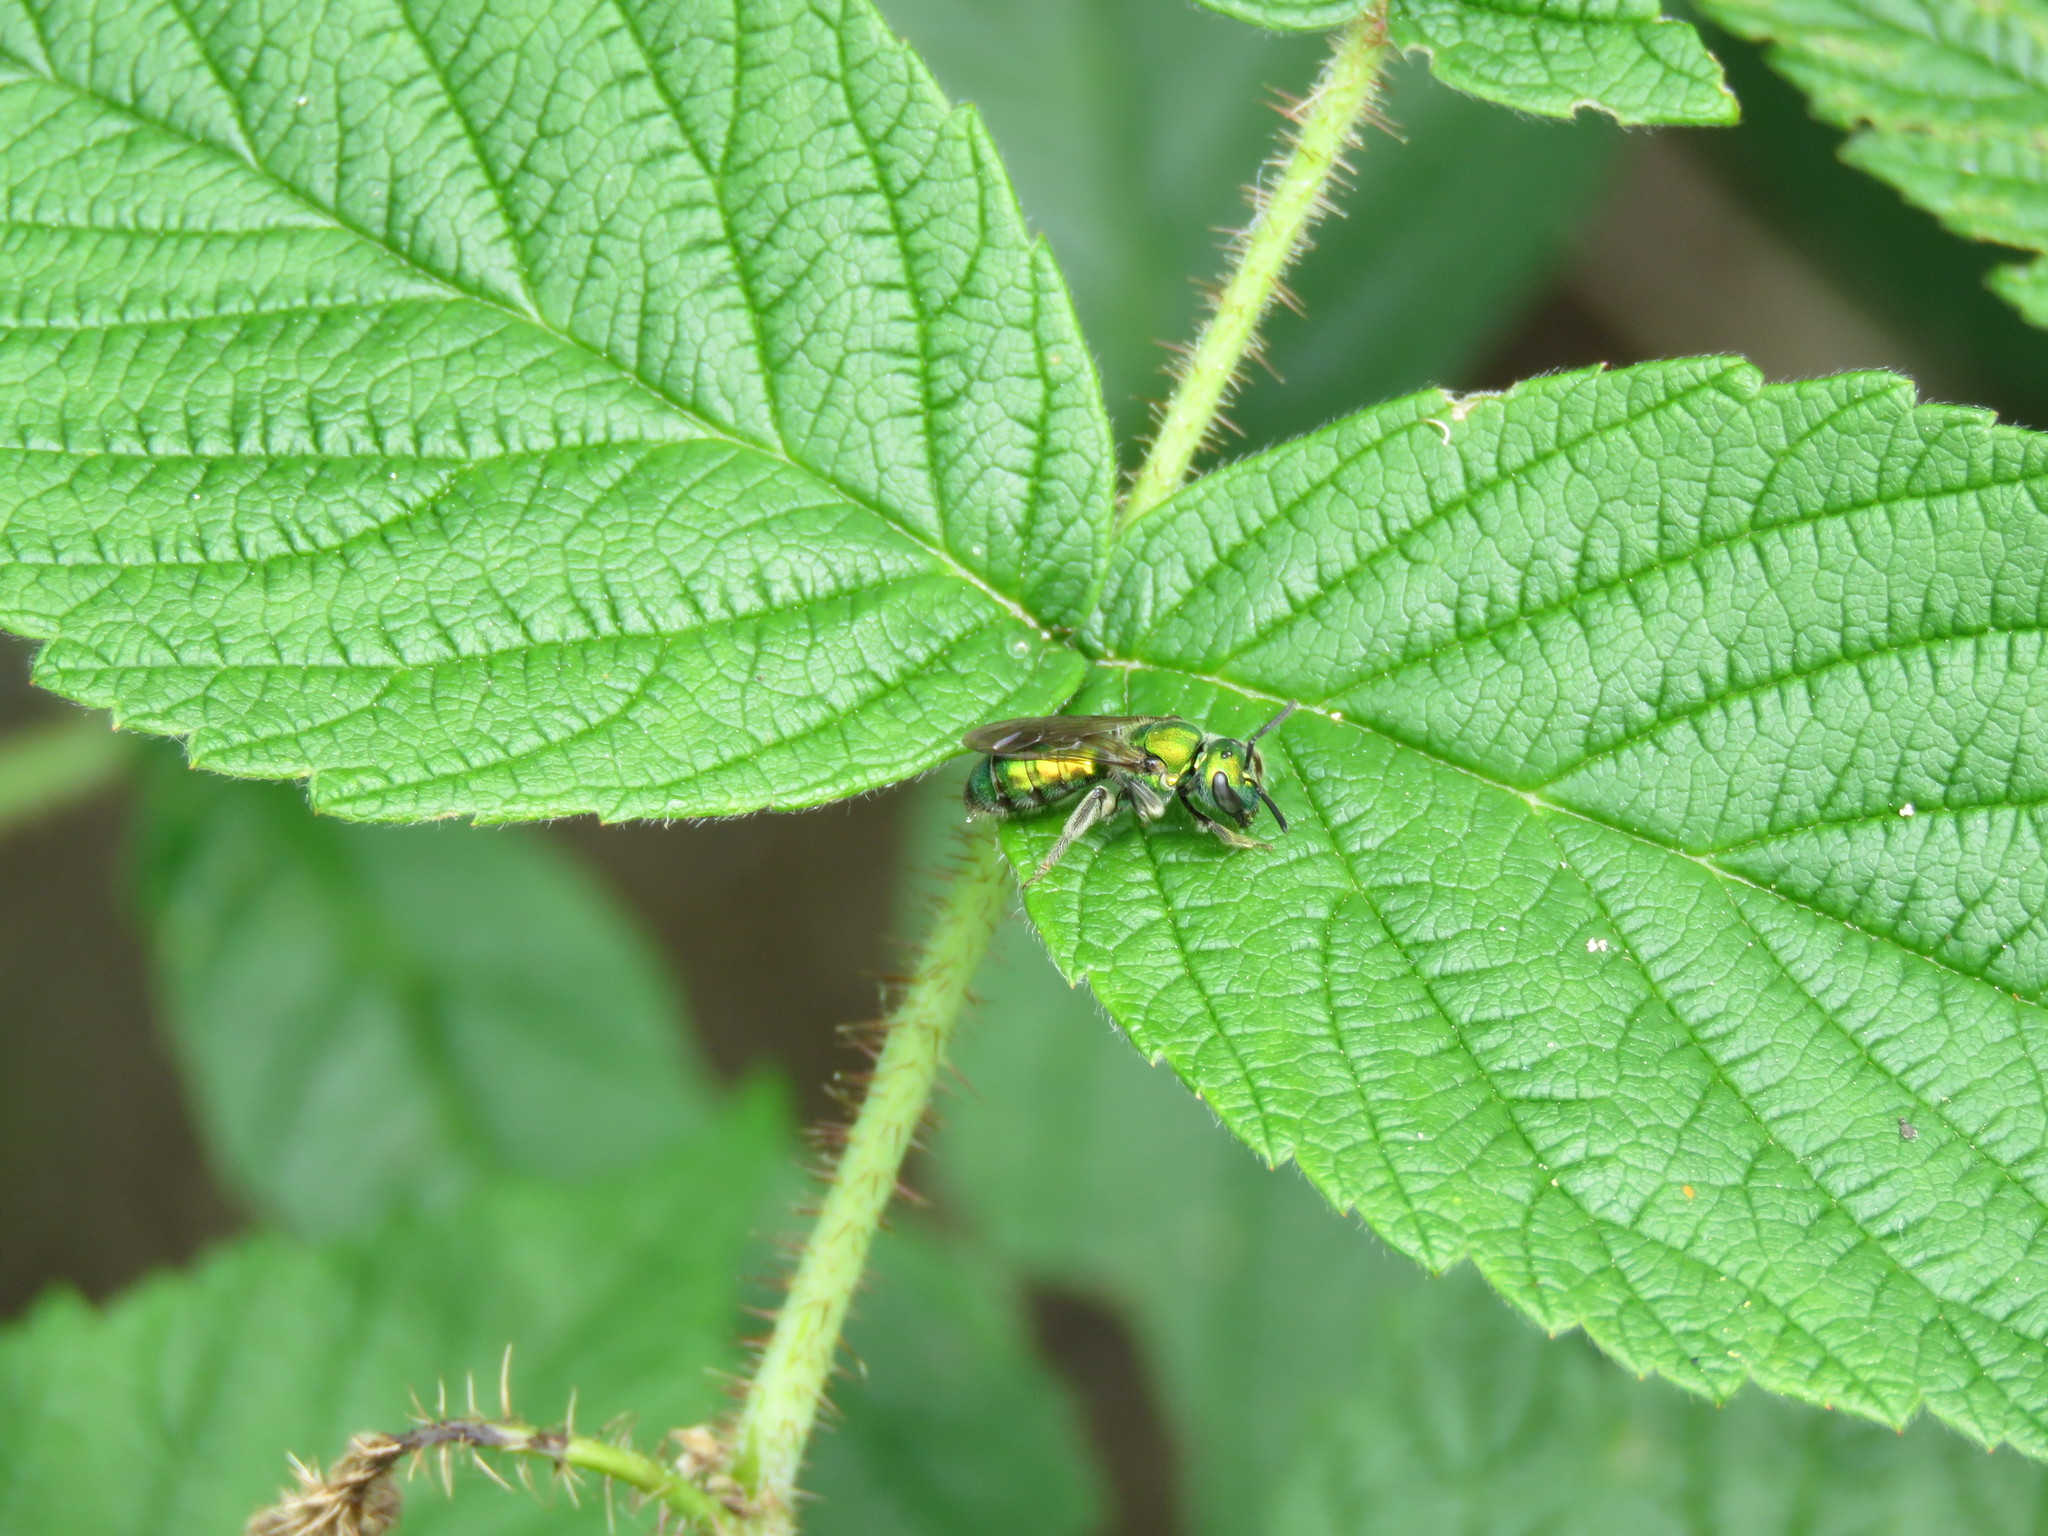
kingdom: Animalia
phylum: Arthropoda
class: Insecta
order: Hymenoptera
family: Halictidae
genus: Augochlora
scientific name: Augochlora pura
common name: Pure green sweat bee
